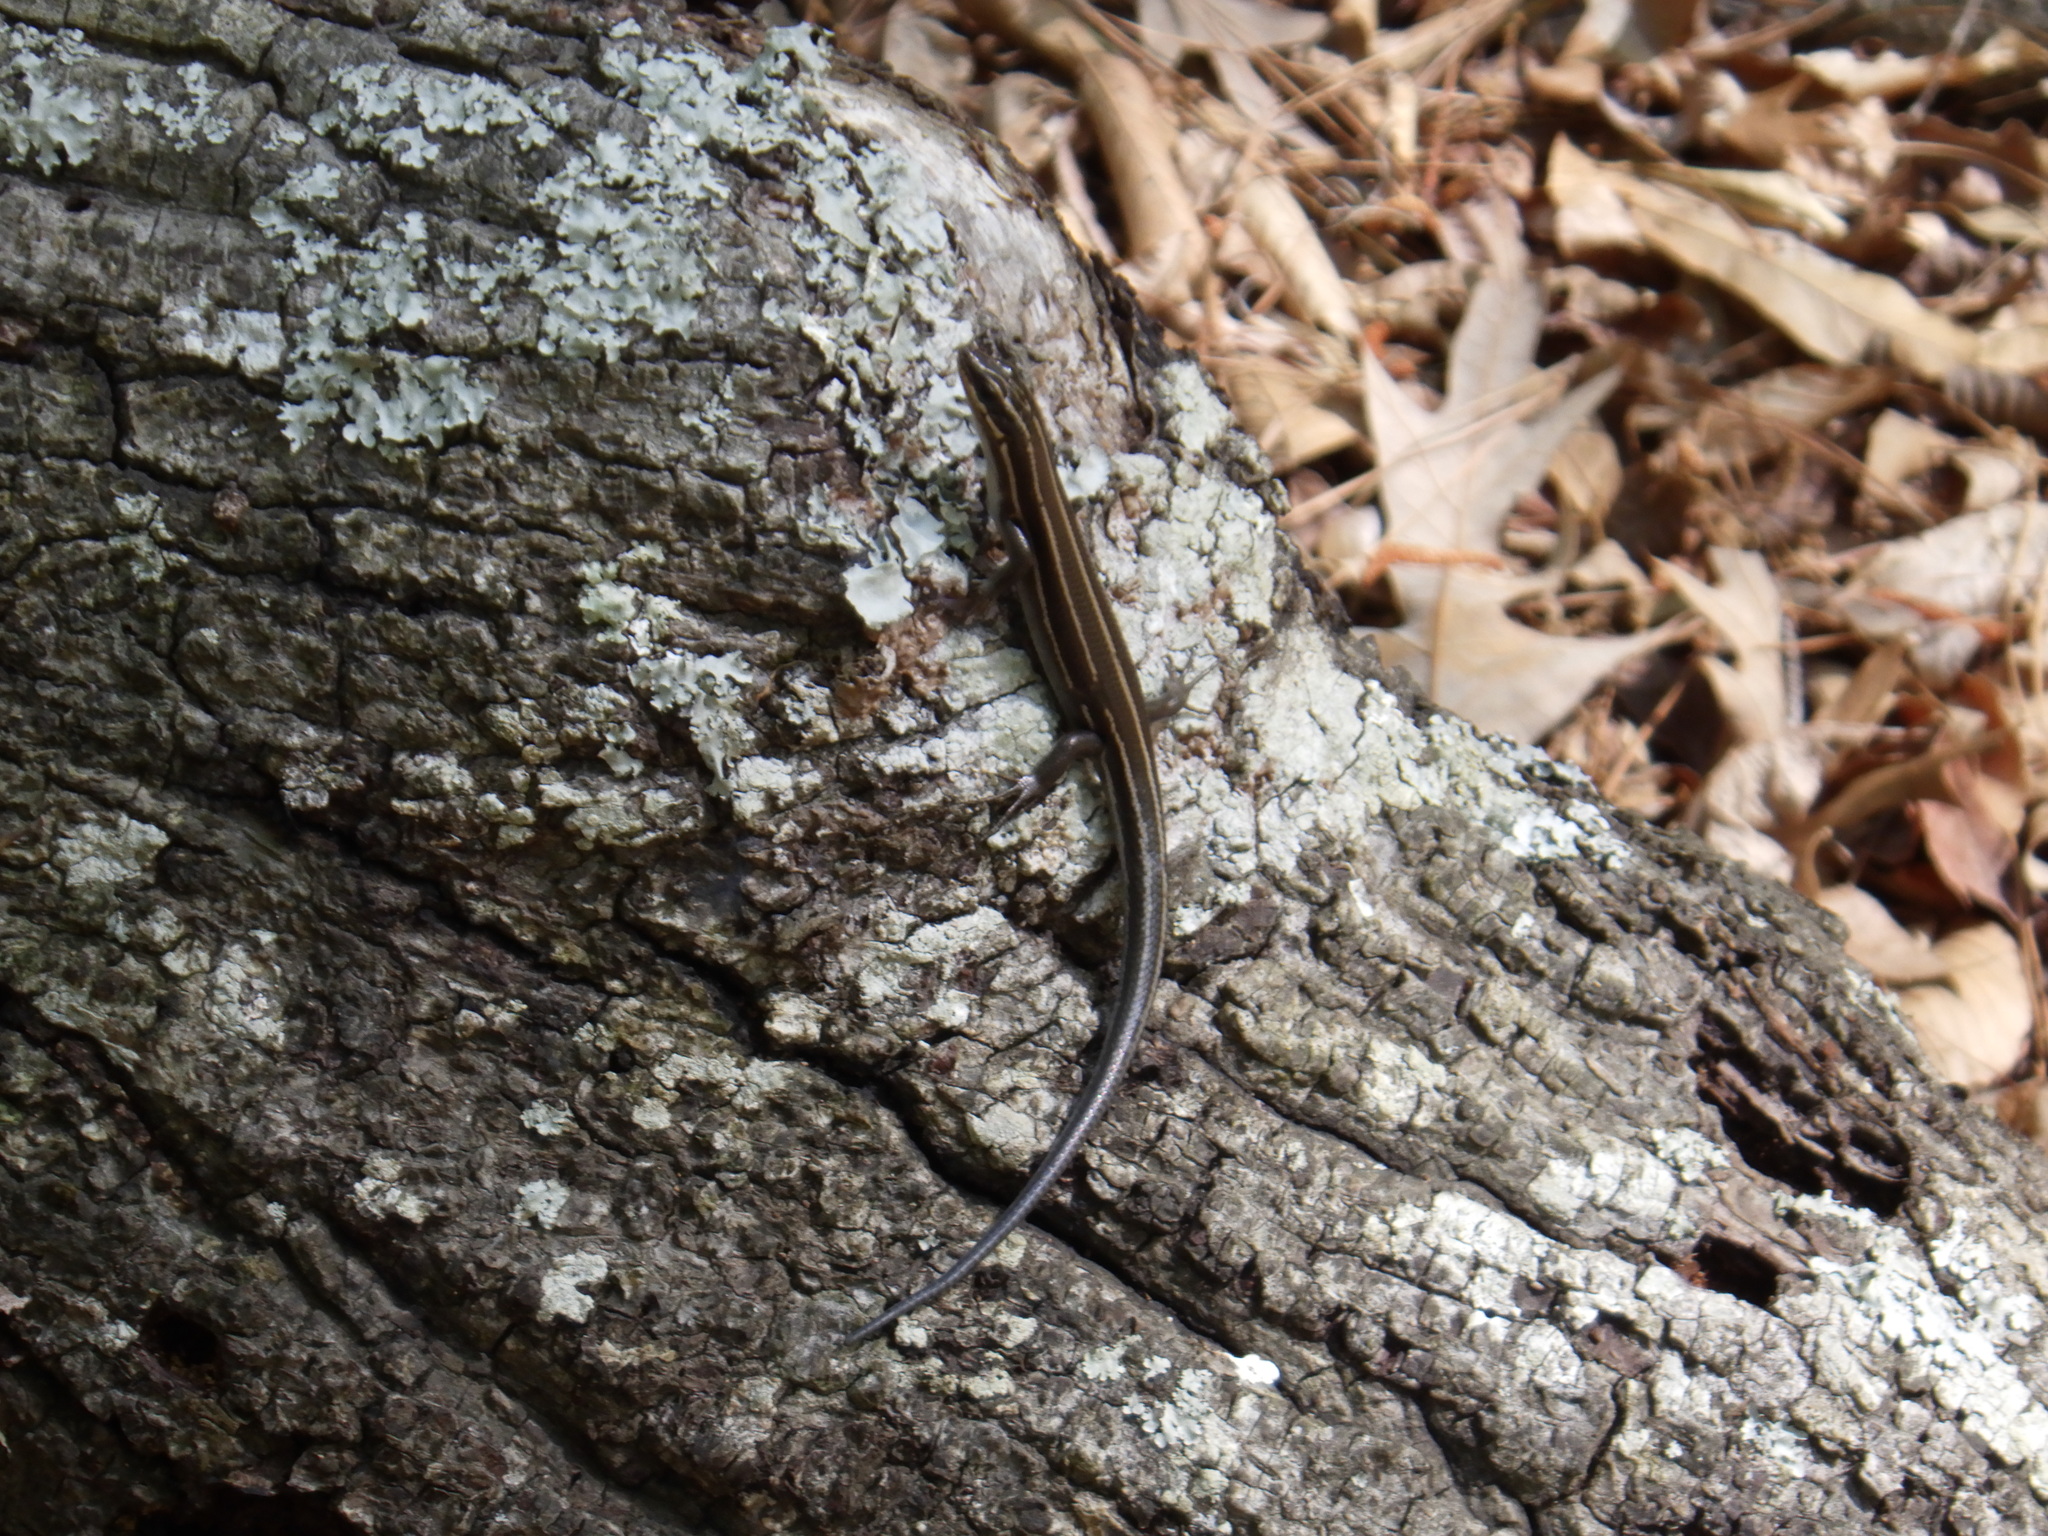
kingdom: Animalia
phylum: Chordata
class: Squamata
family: Scincidae
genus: Plestiodon
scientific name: Plestiodon fasciatus
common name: Five-lined skink
